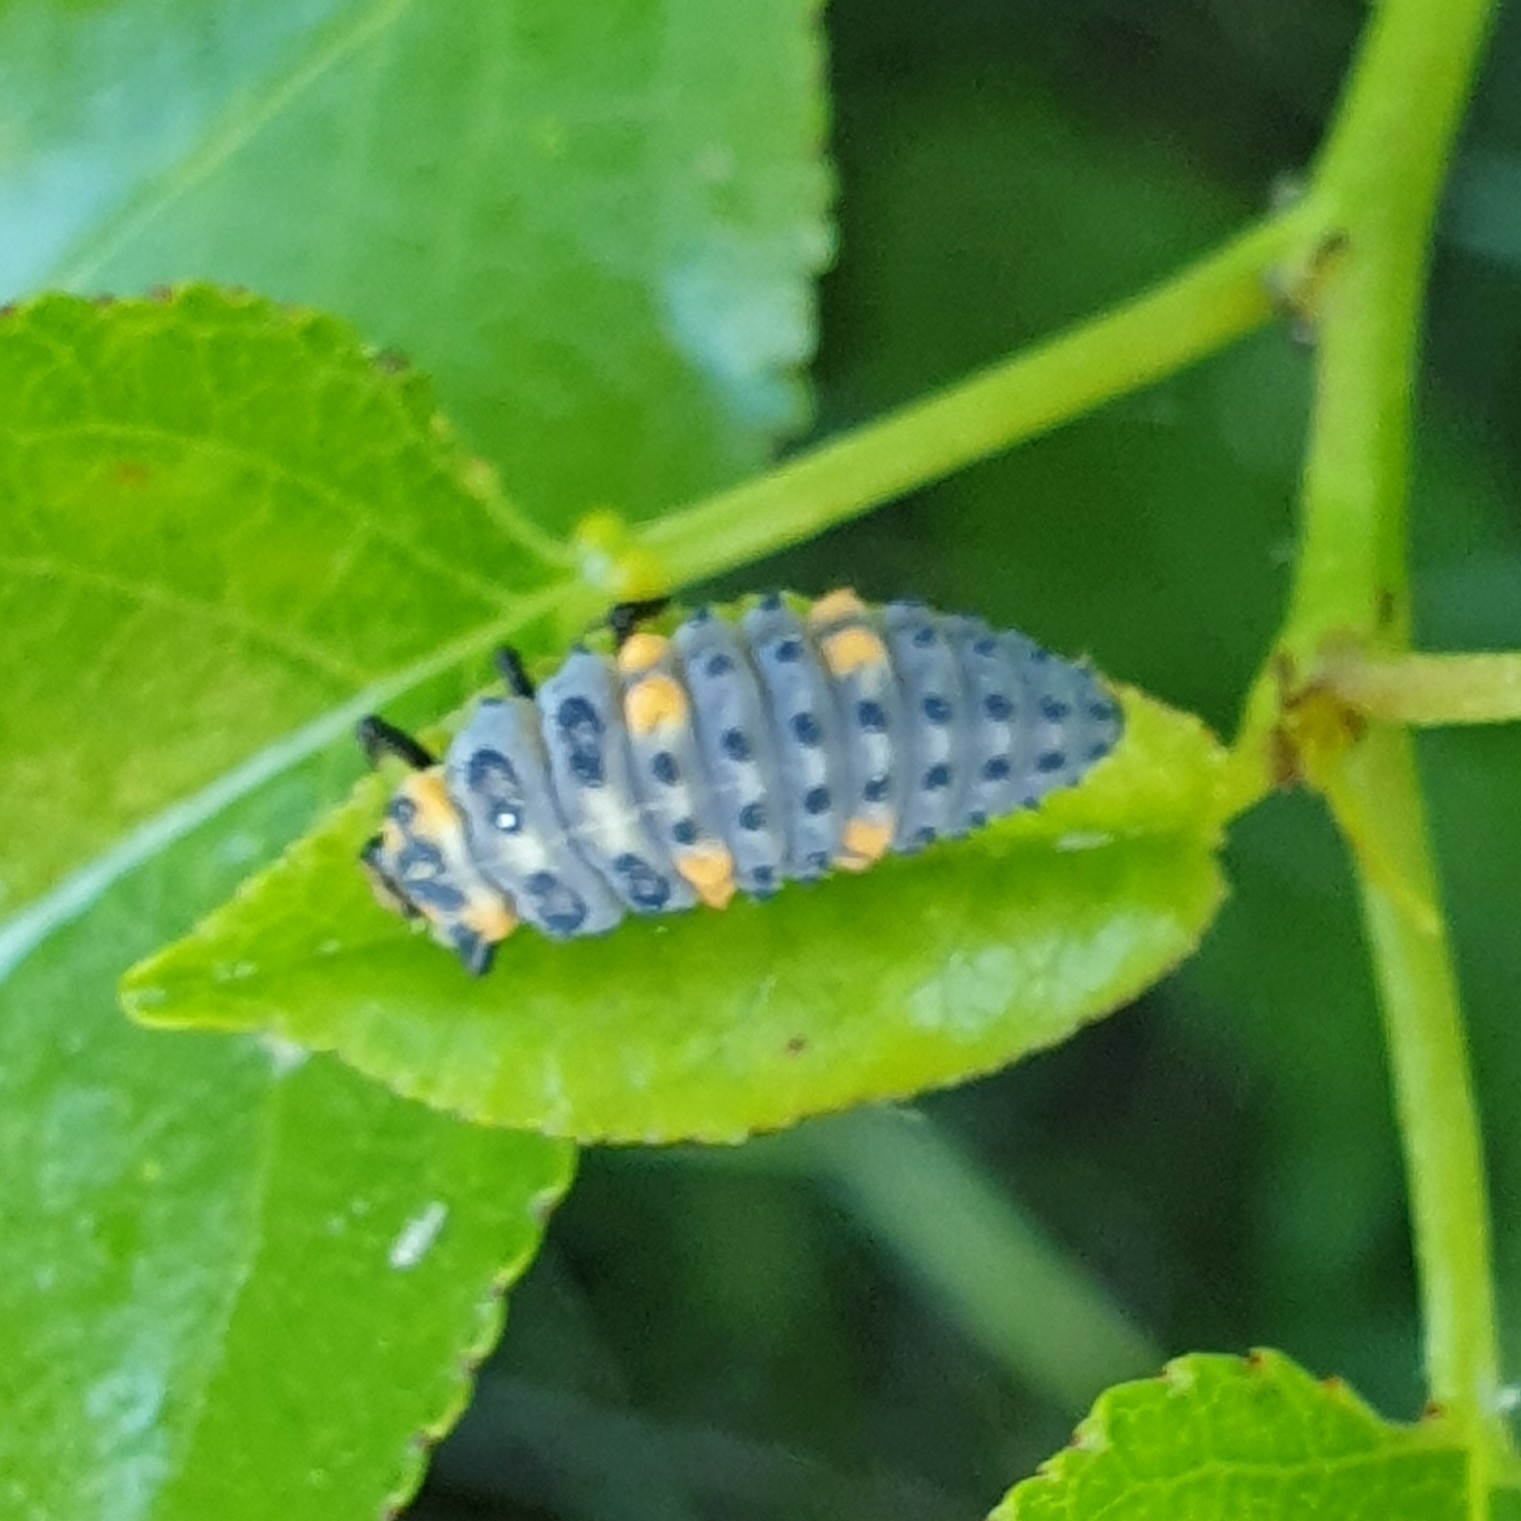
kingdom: Animalia
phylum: Arthropoda
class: Insecta
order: Coleoptera
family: Coccinellidae
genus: Coccinella
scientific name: Coccinella septempunctata
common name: Sevenspotted lady beetle
